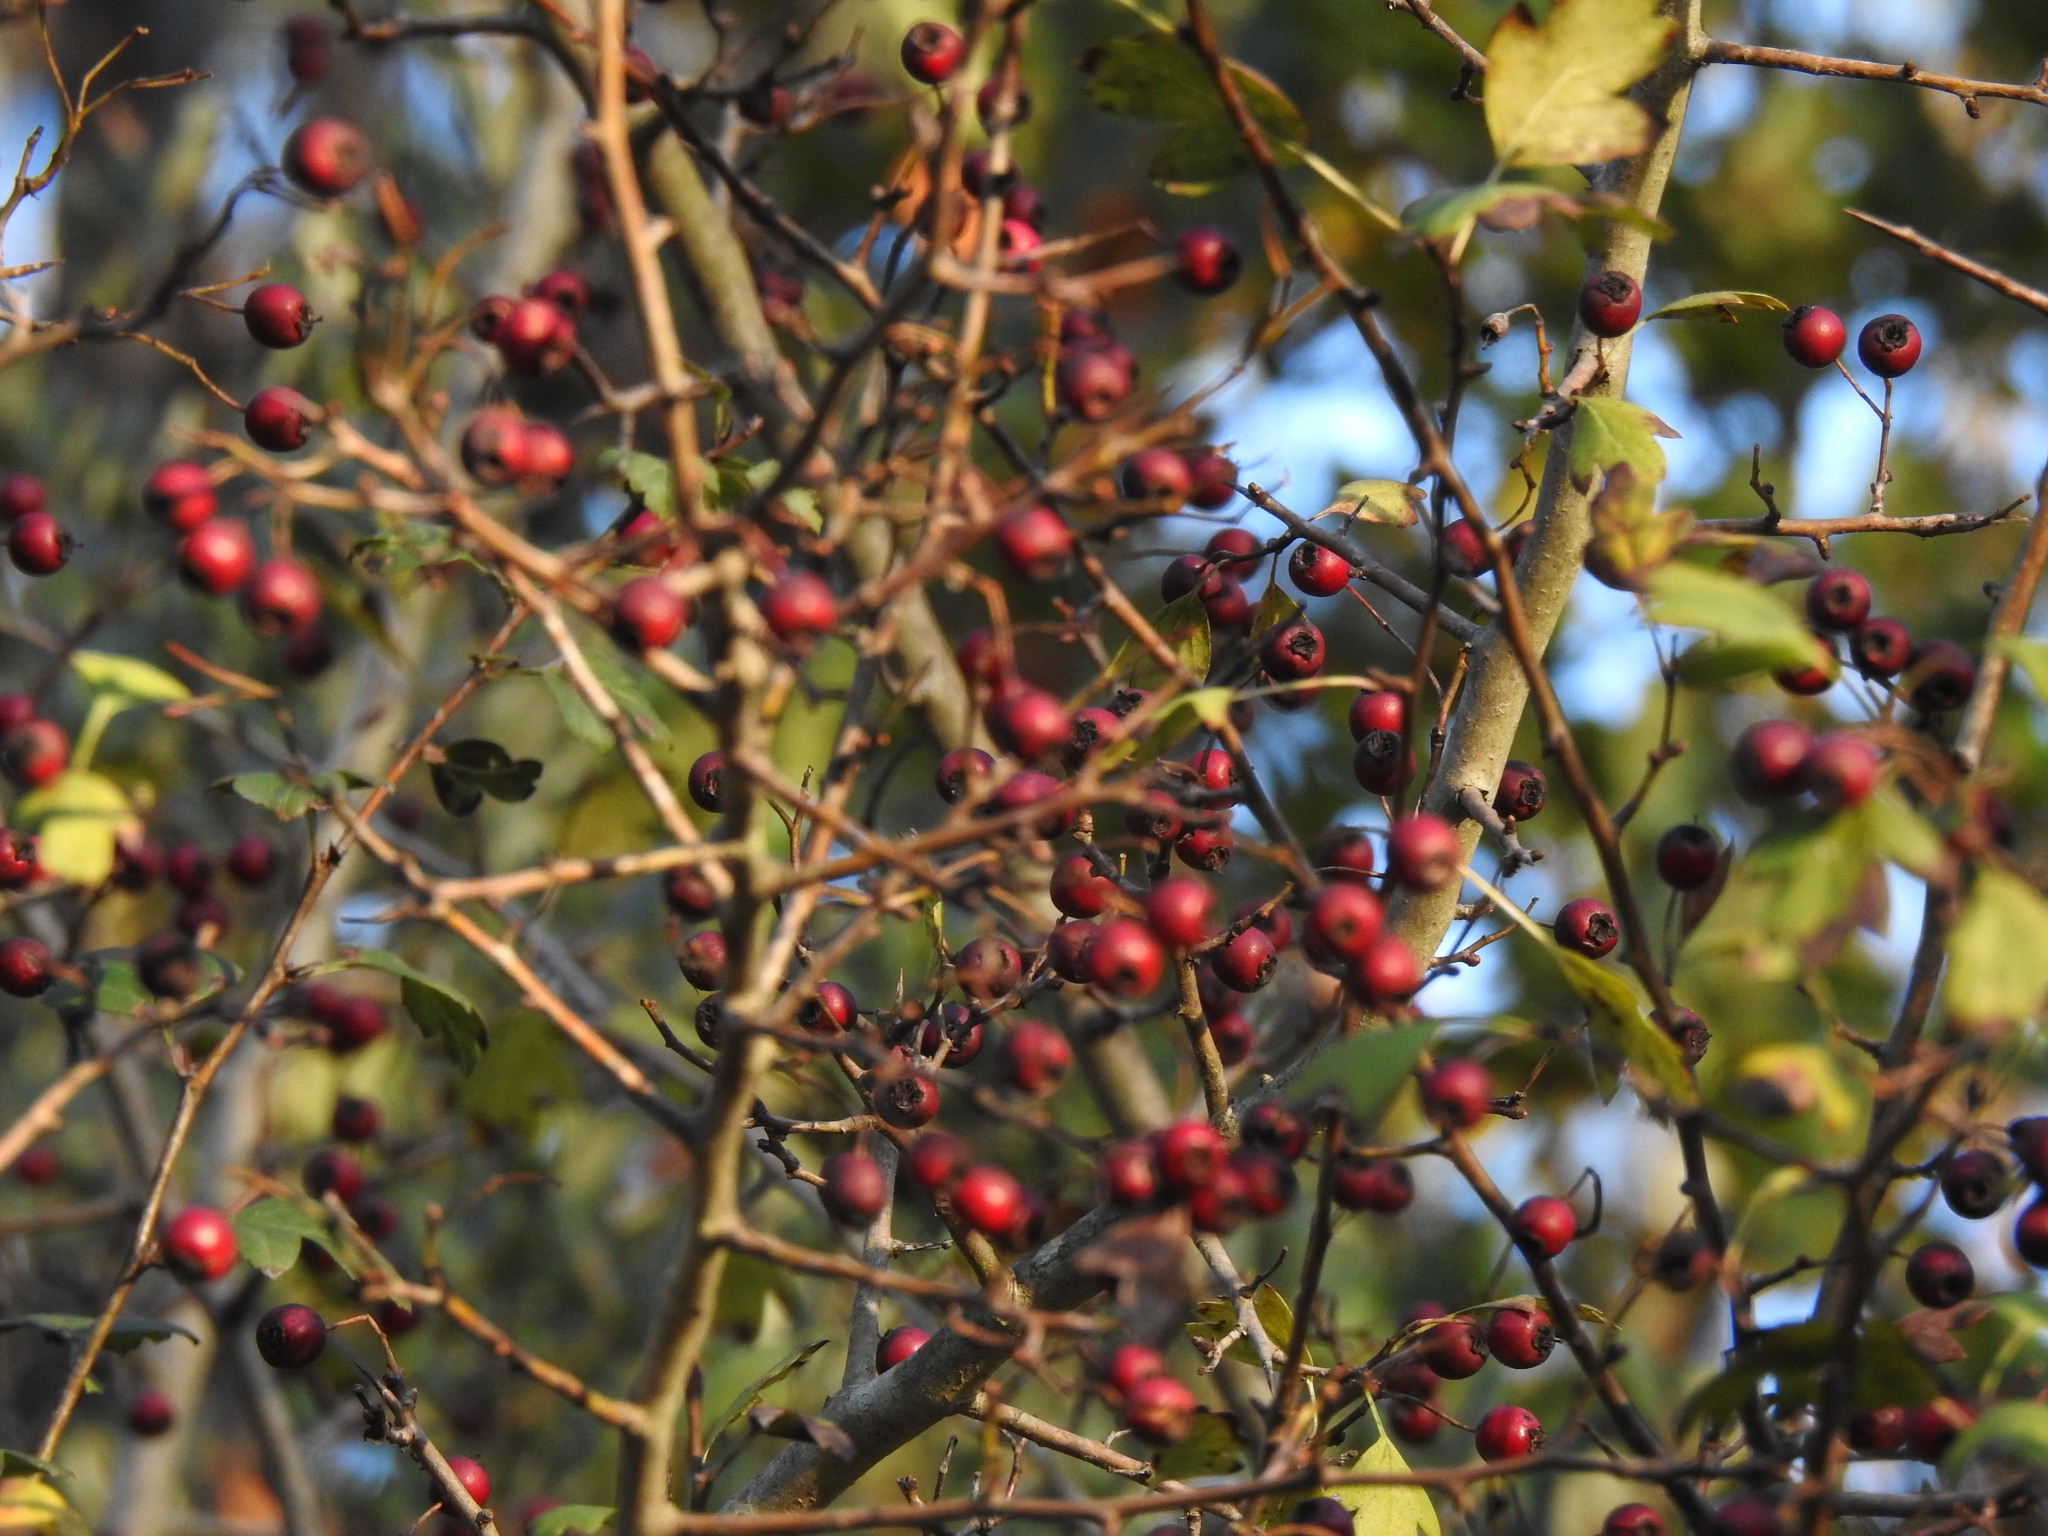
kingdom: Plantae
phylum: Tracheophyta
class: Magnoliopsida
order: Rosales
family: Rosaceae
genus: Crataegus
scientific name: Crataegus monogyna
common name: Hawthorn
